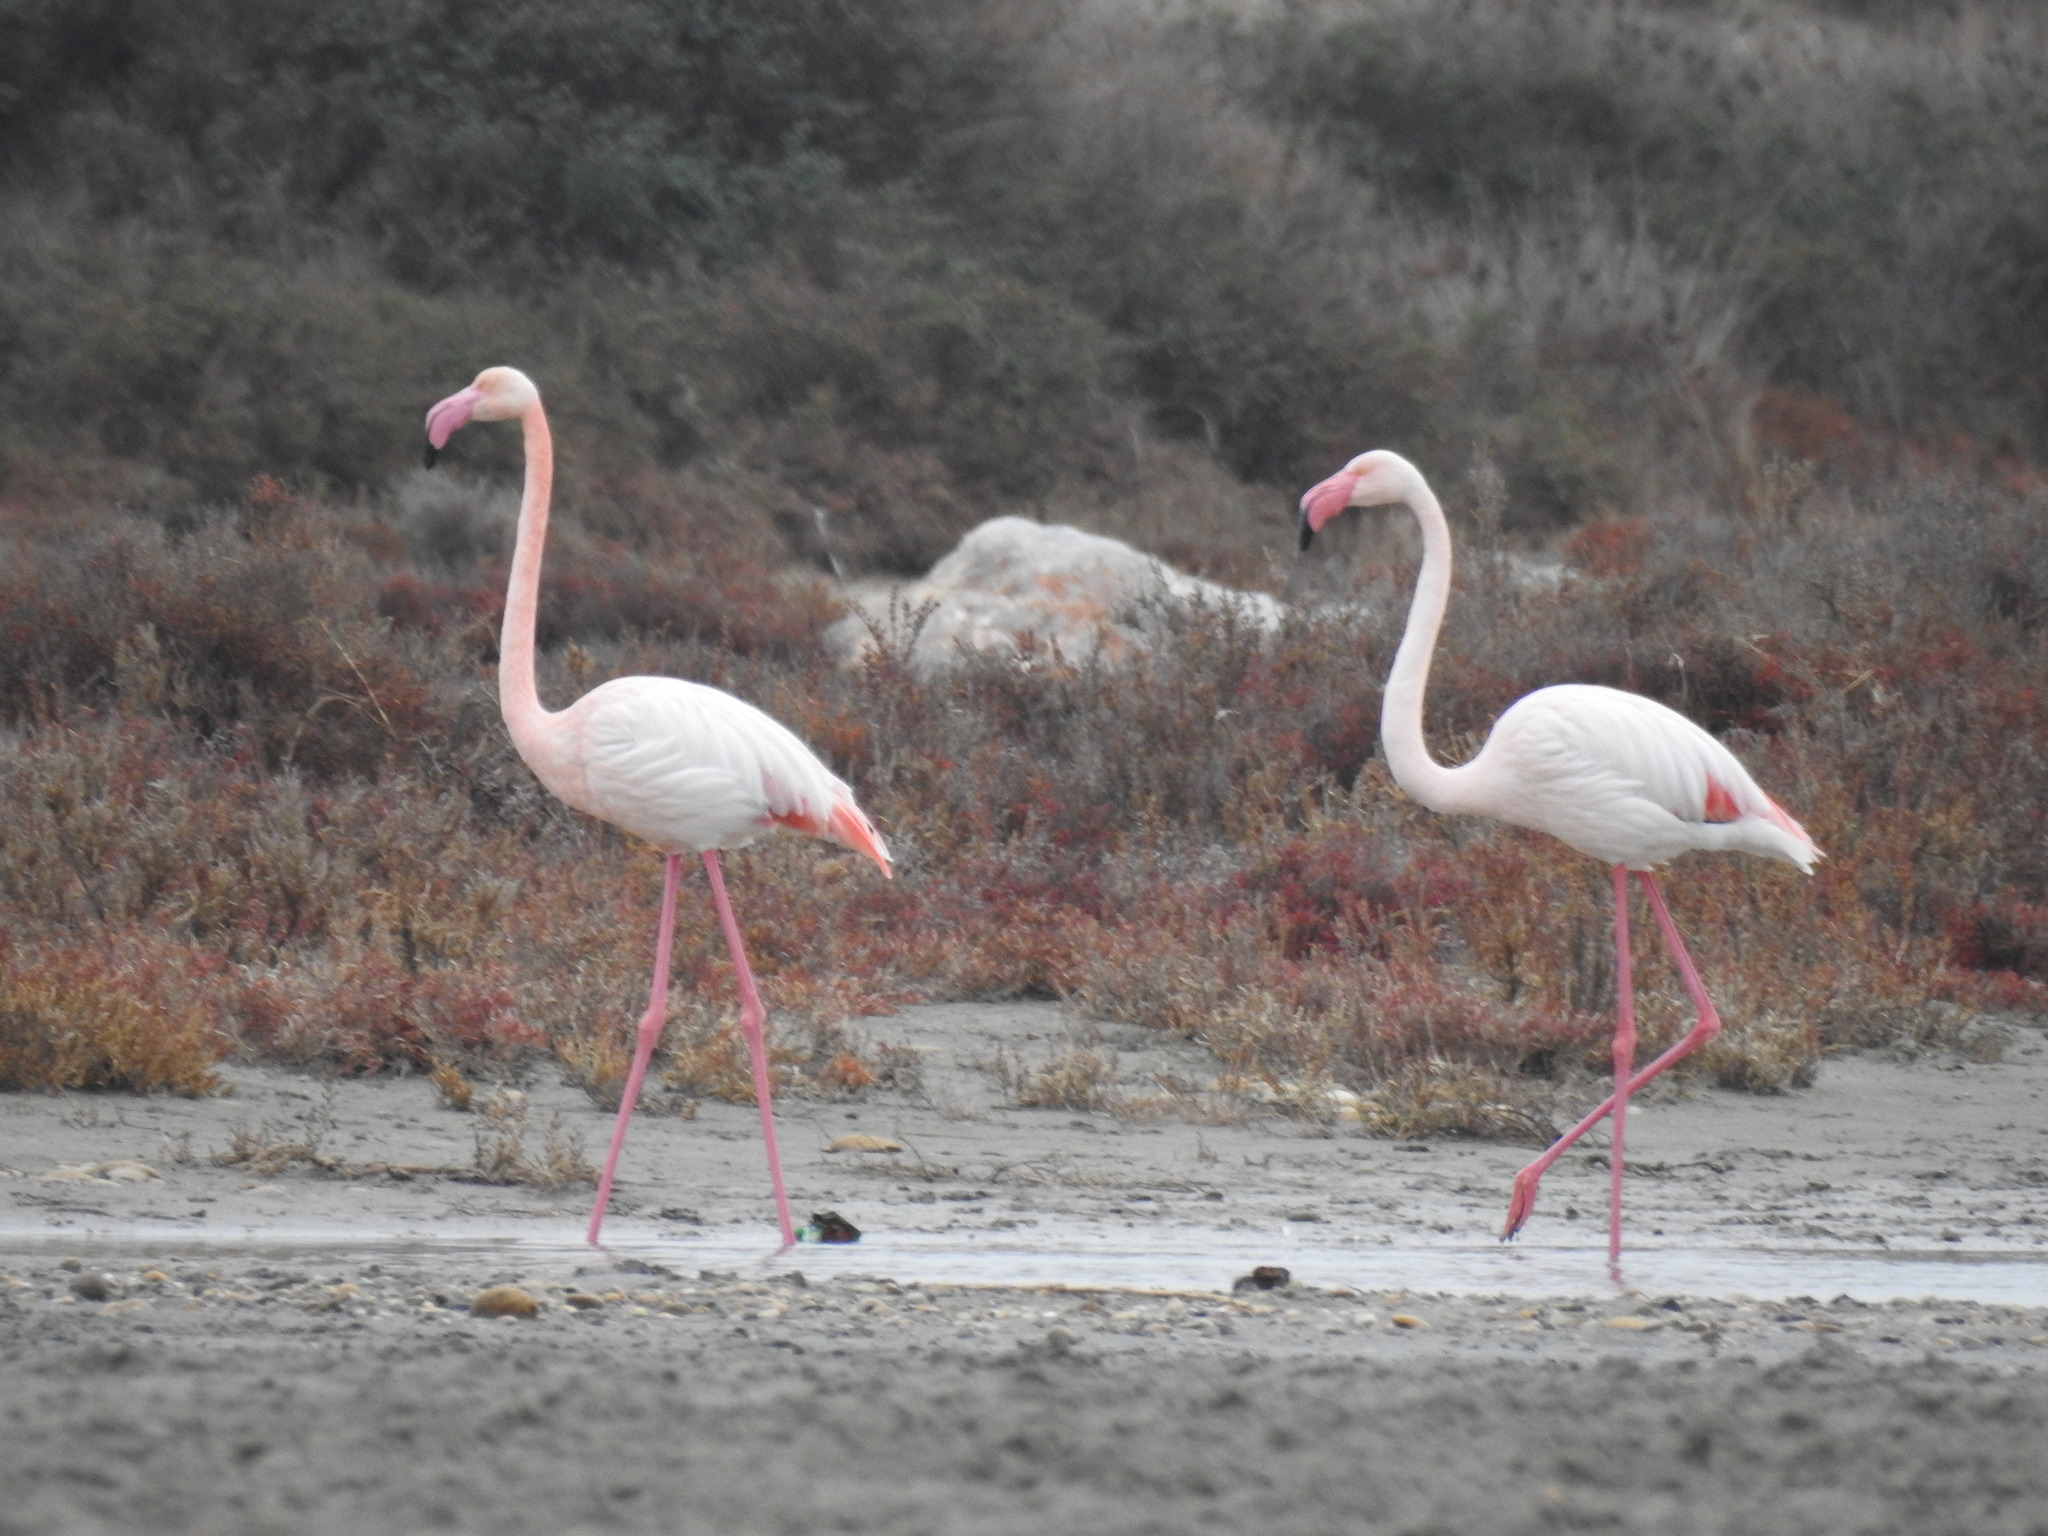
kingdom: Animalia
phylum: Chordata
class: Aves
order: Phoenicopteriformes
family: Phoenicopteridae
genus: Phoenicopterus
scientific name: Phoenicopterus roseus
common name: Greater flamingo
